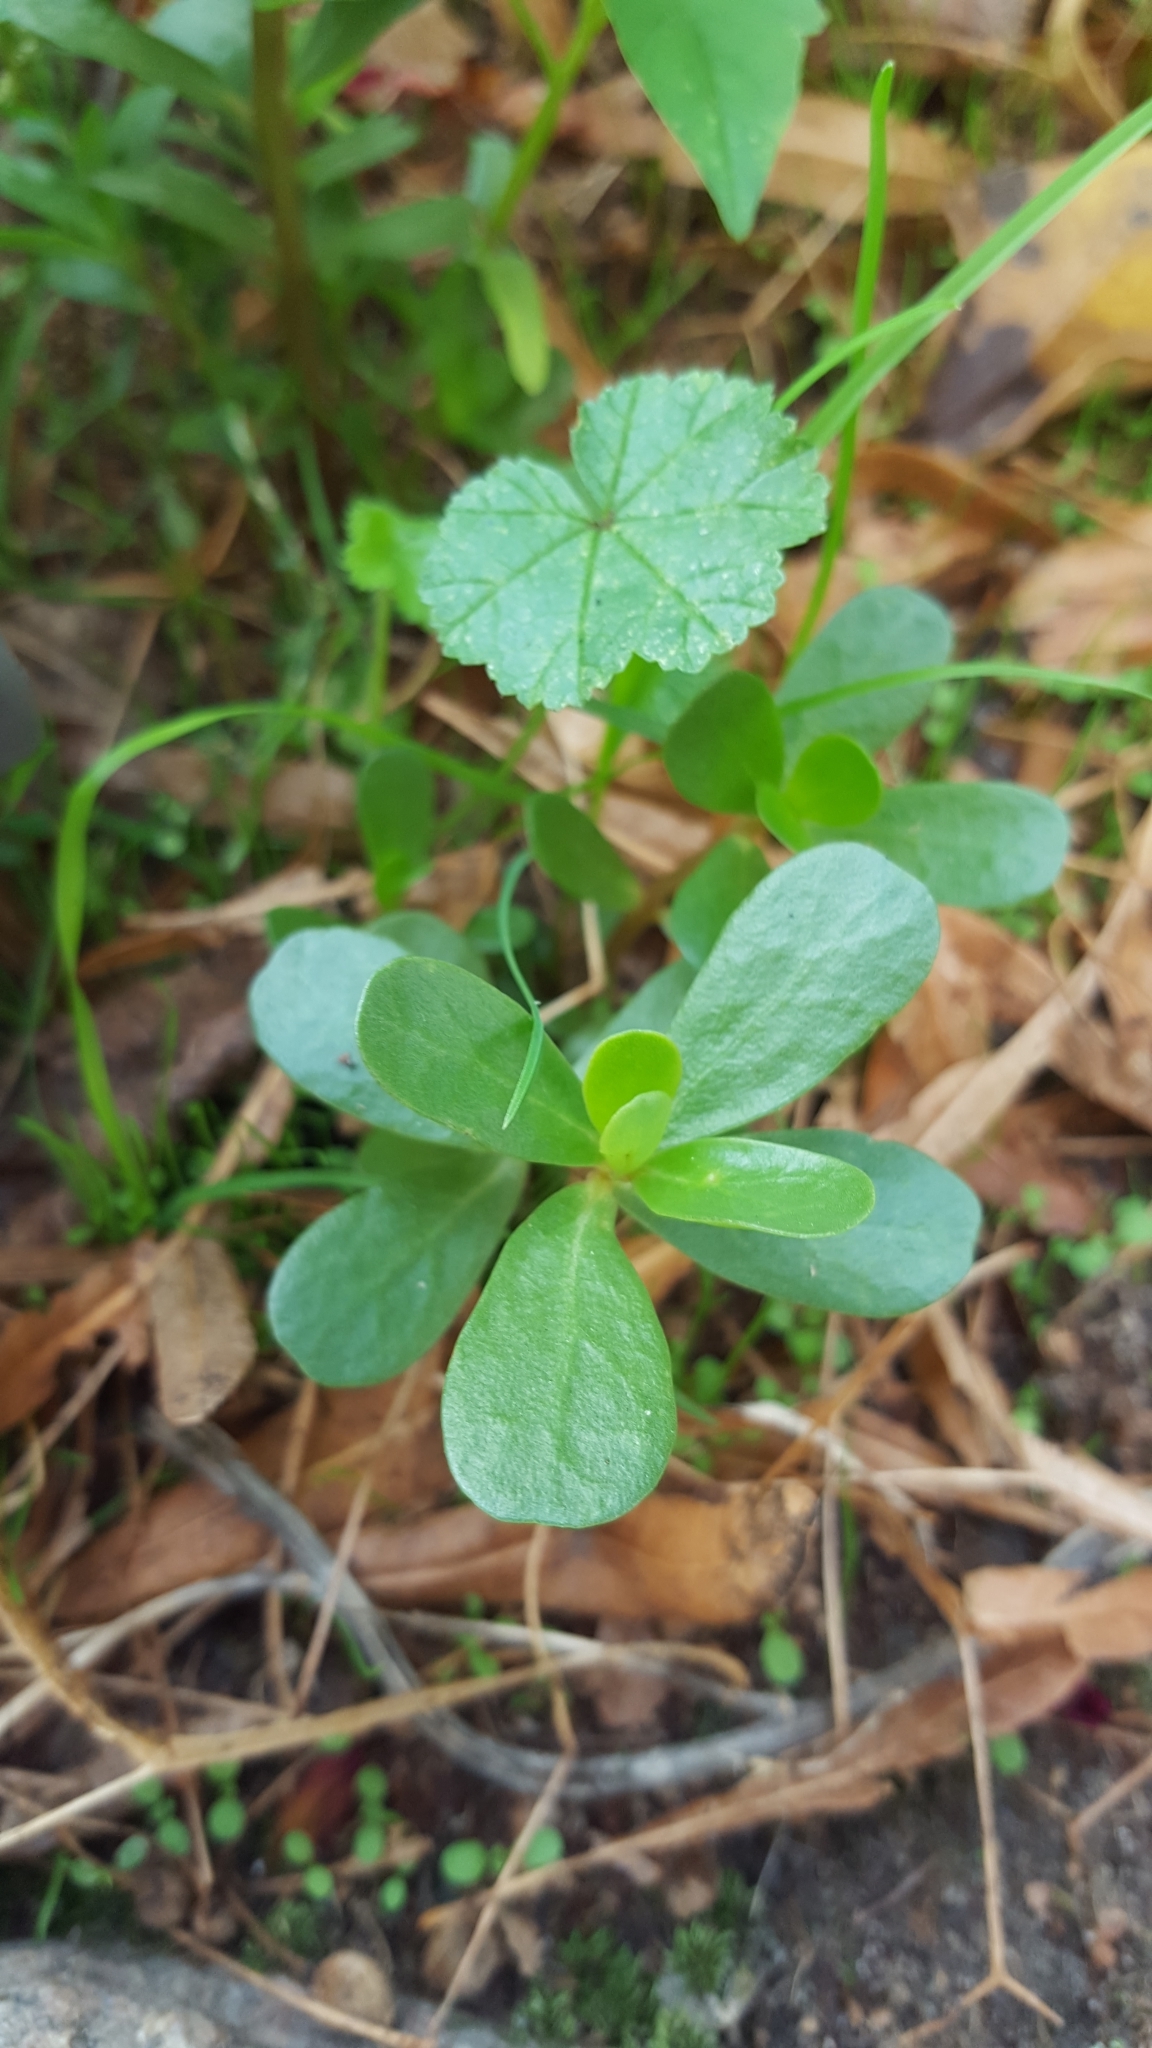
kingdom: Plantae
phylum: Tracheophyta
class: Magnoliopsida
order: Caryophyllales
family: Portulacaceae
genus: Portulaca
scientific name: Portulaca oleracea
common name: Common purslane
